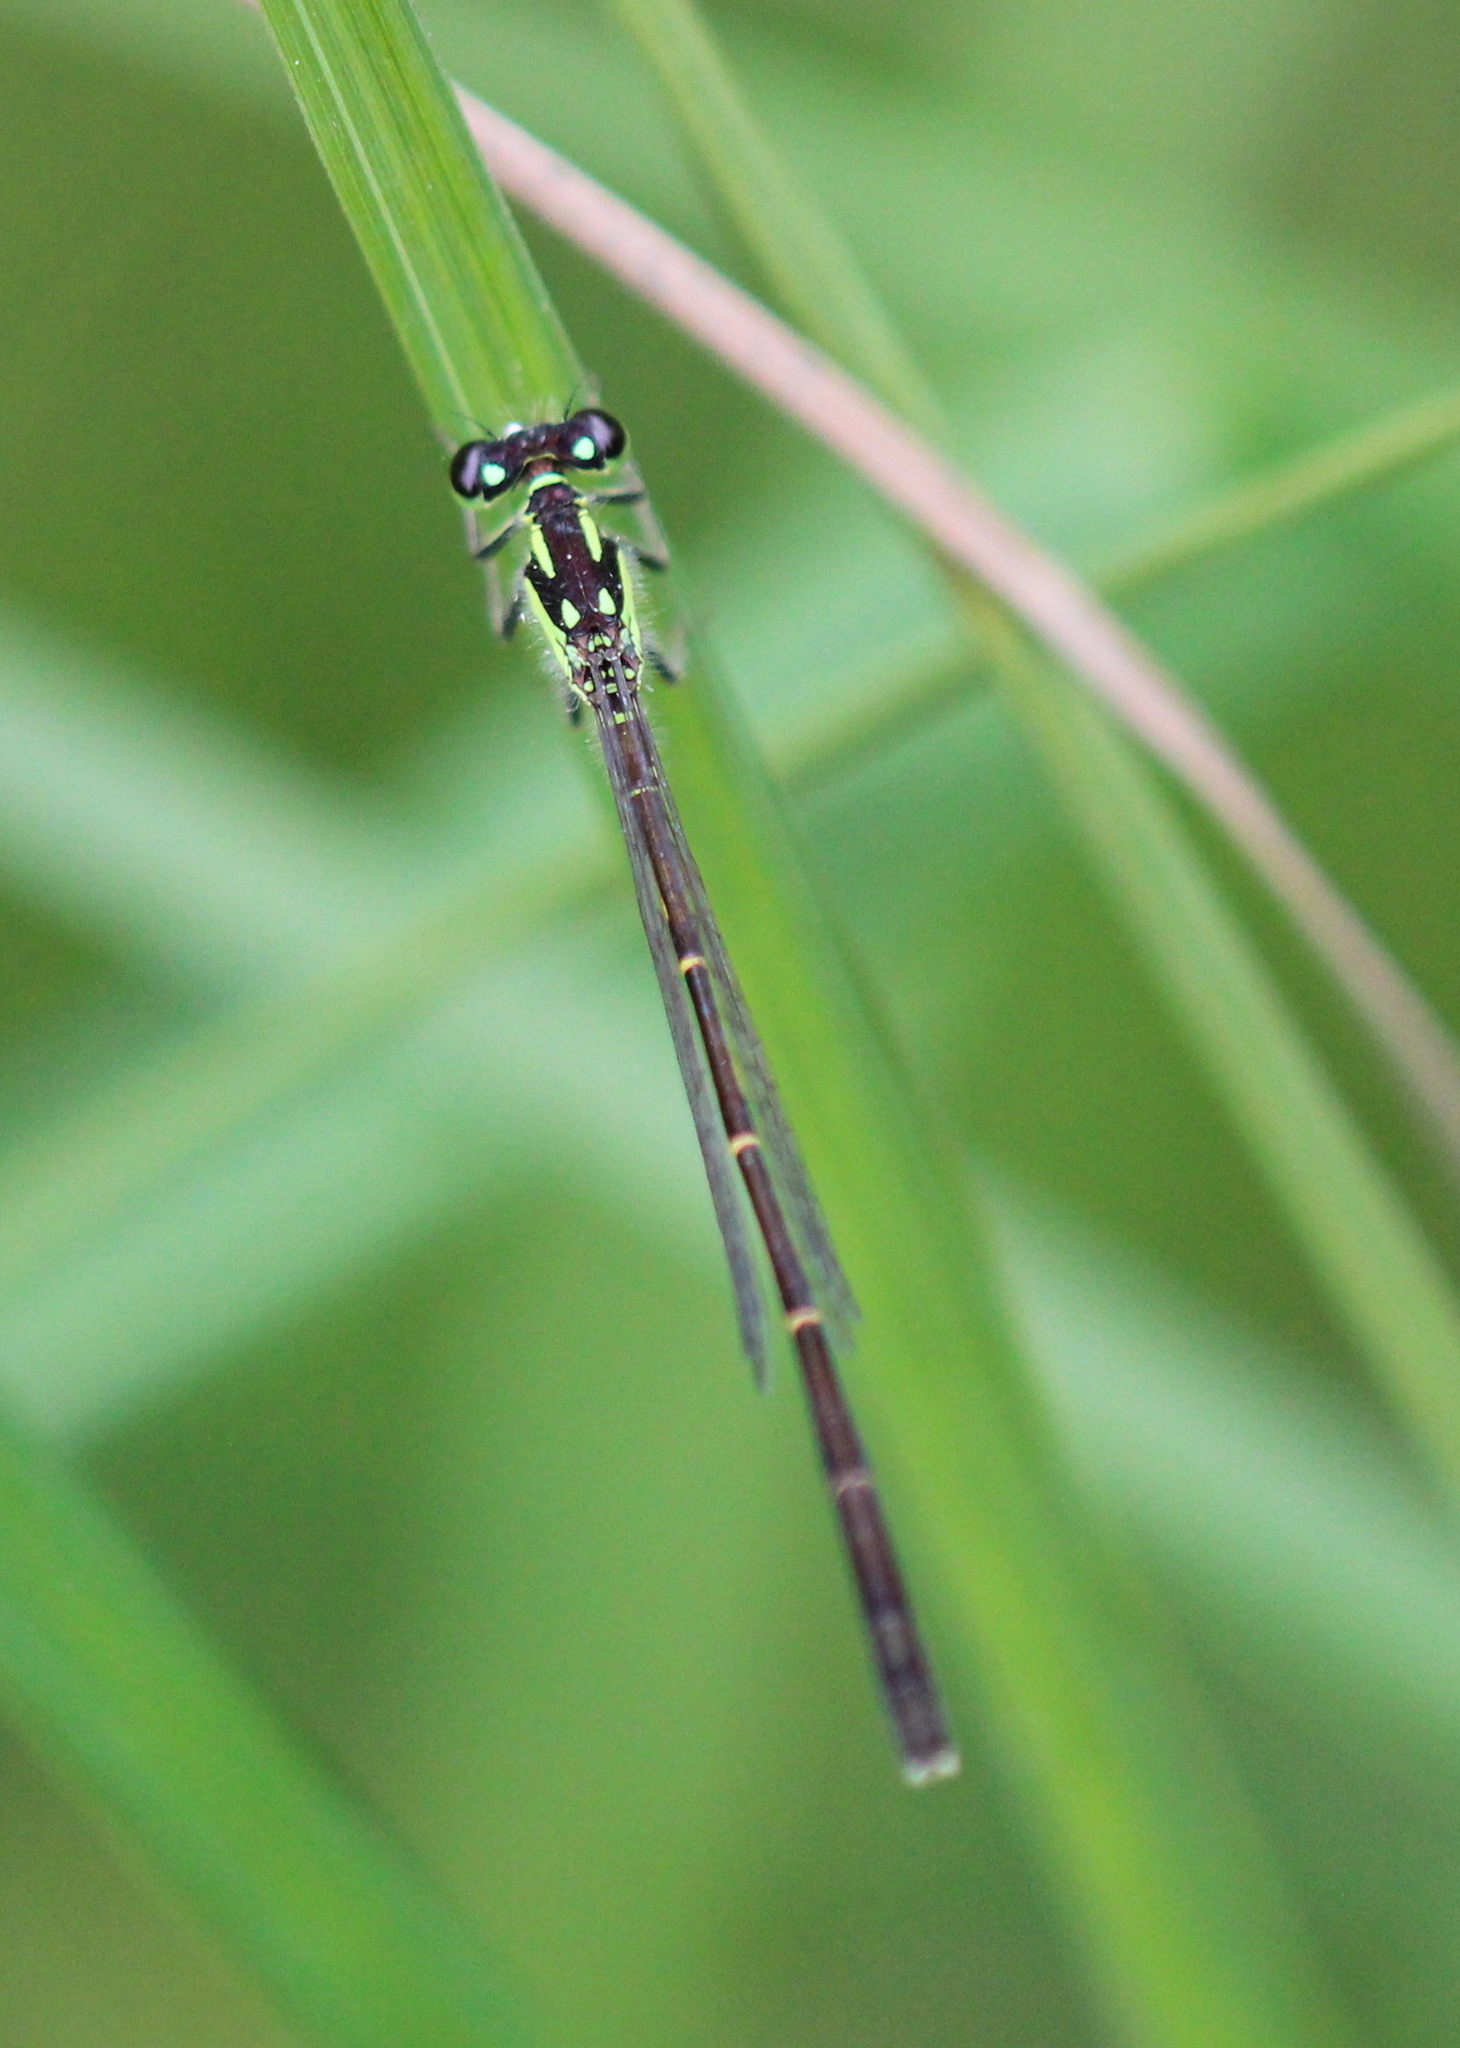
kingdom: Animalia
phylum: Arthropoda
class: Insecta
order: Odonata
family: Coenagrionidae
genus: Ischnura
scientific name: Ischnura posita
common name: Fragile forktail
